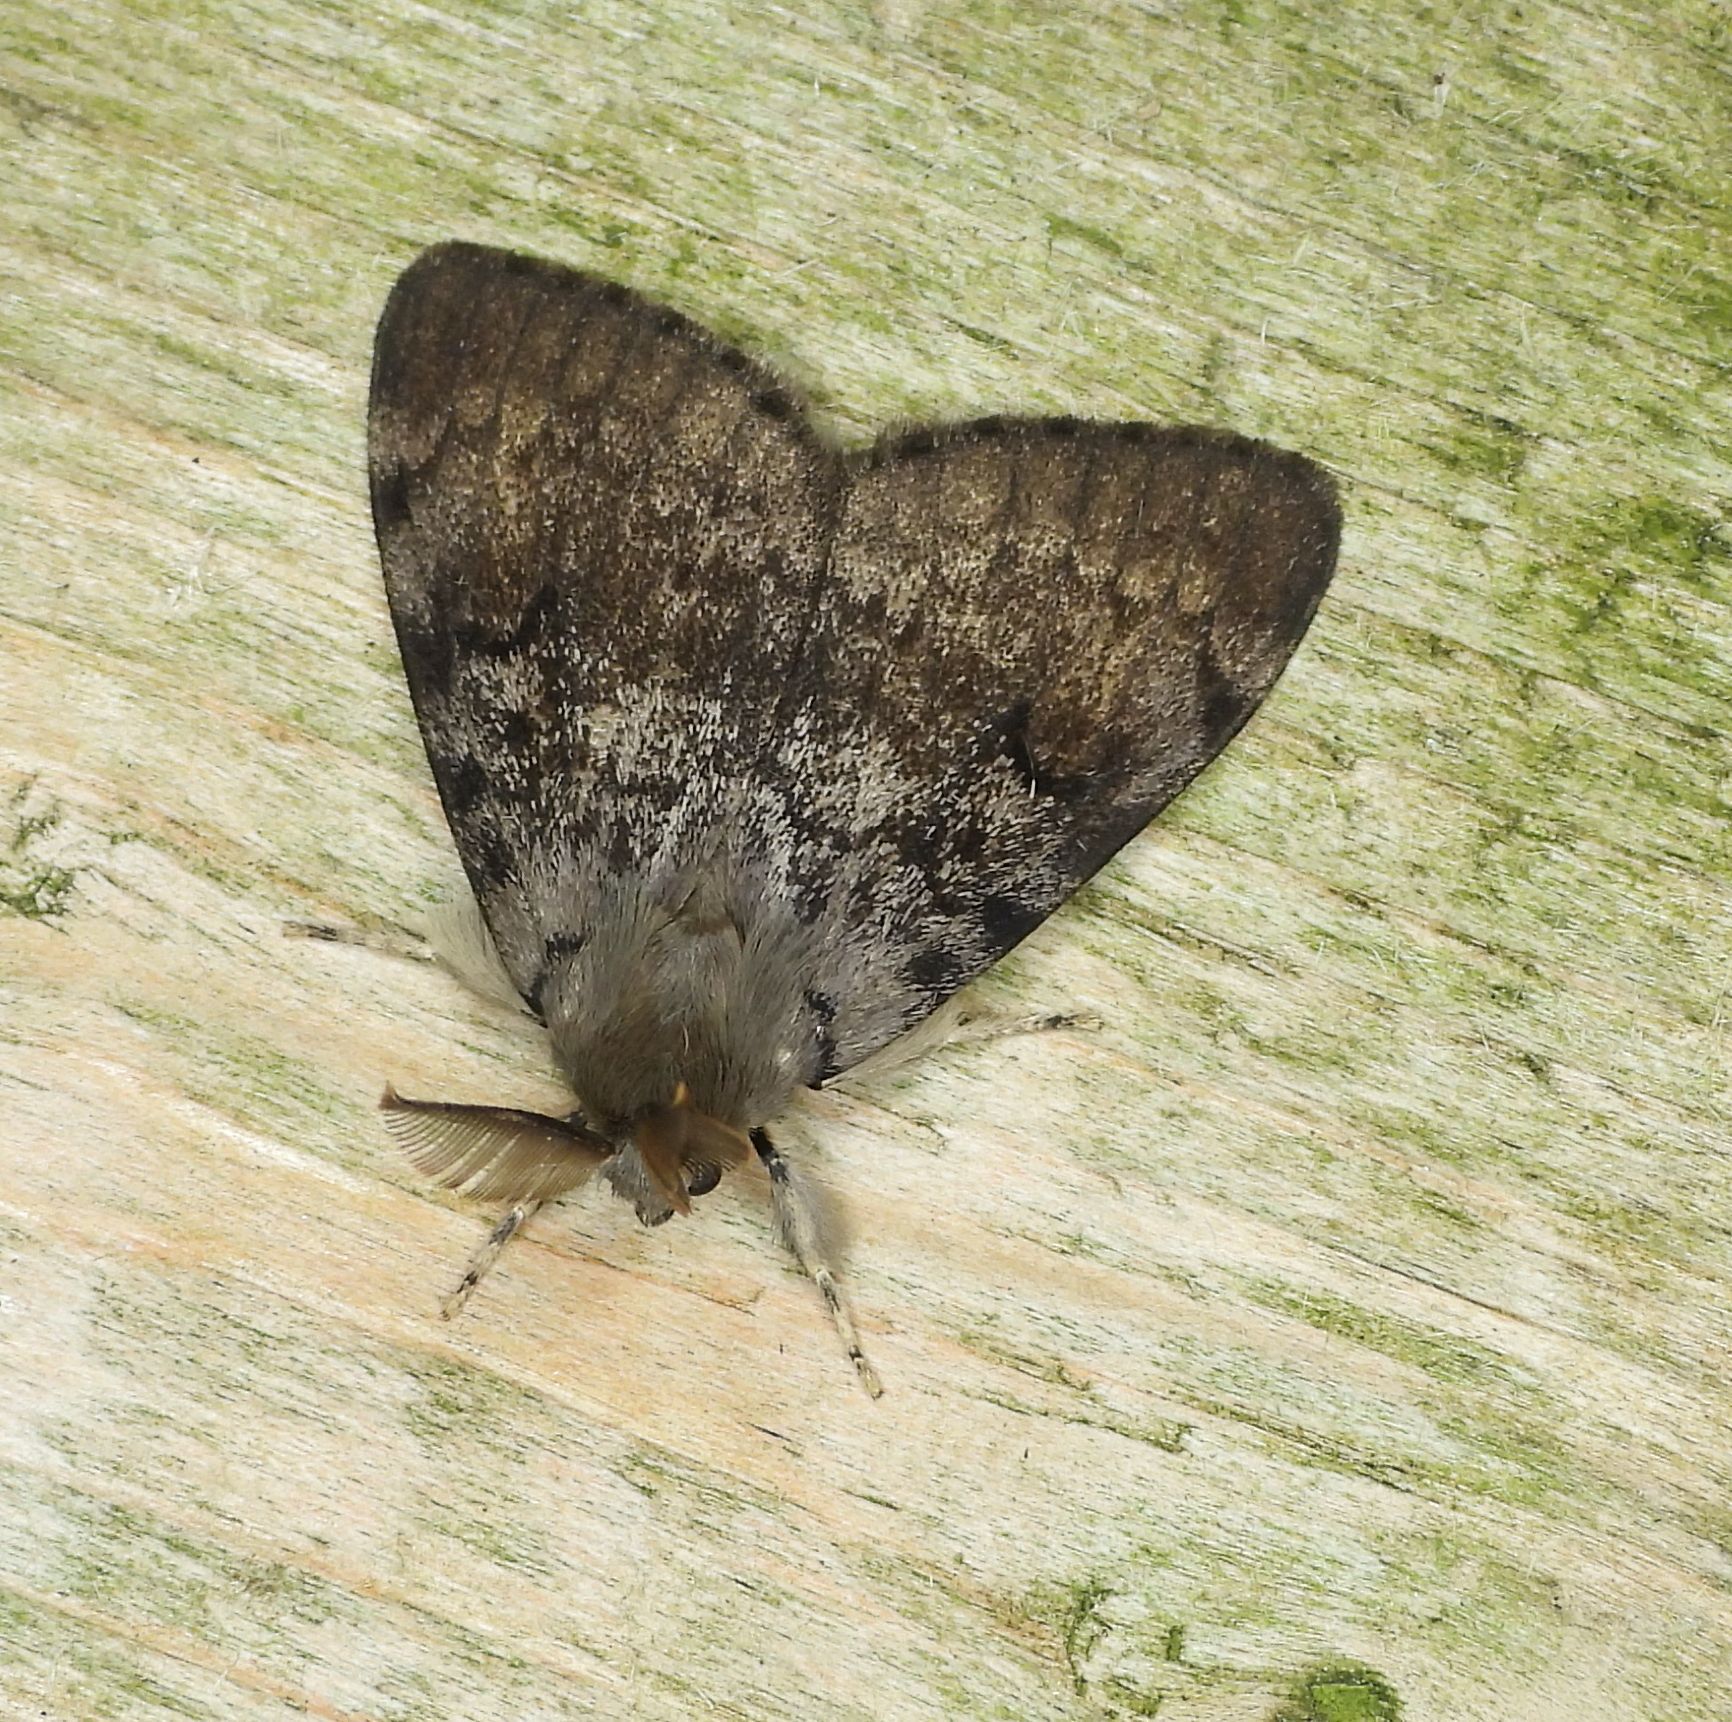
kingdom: Animalia
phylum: Arthropoda
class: Insecta
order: Lepidoptera
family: Erebidae
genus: Lymantria
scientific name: Lymantria dispar
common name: Gypsy moth
